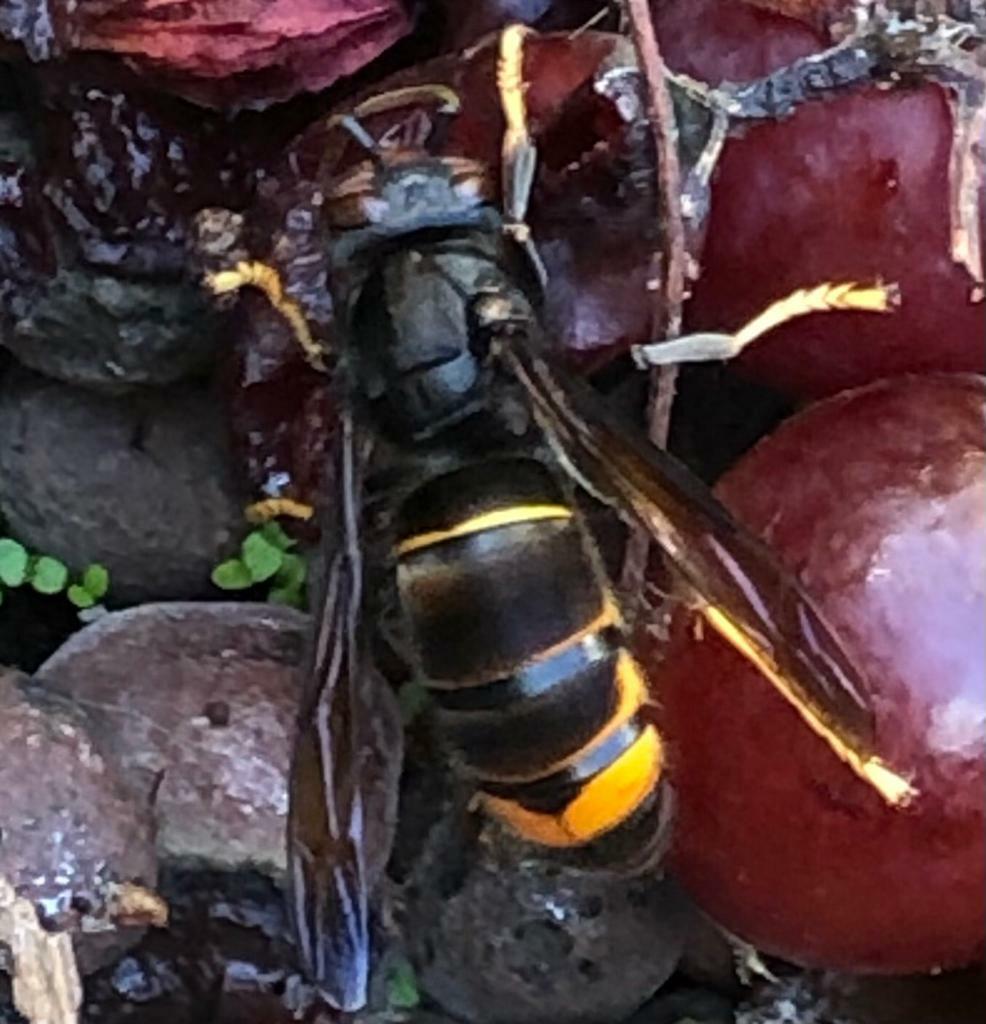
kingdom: Animalia
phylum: Arthropoda
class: Insecta
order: Hymenoptera
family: Vespidae
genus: Vespa
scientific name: Vespa velutina
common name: Asian hornet
